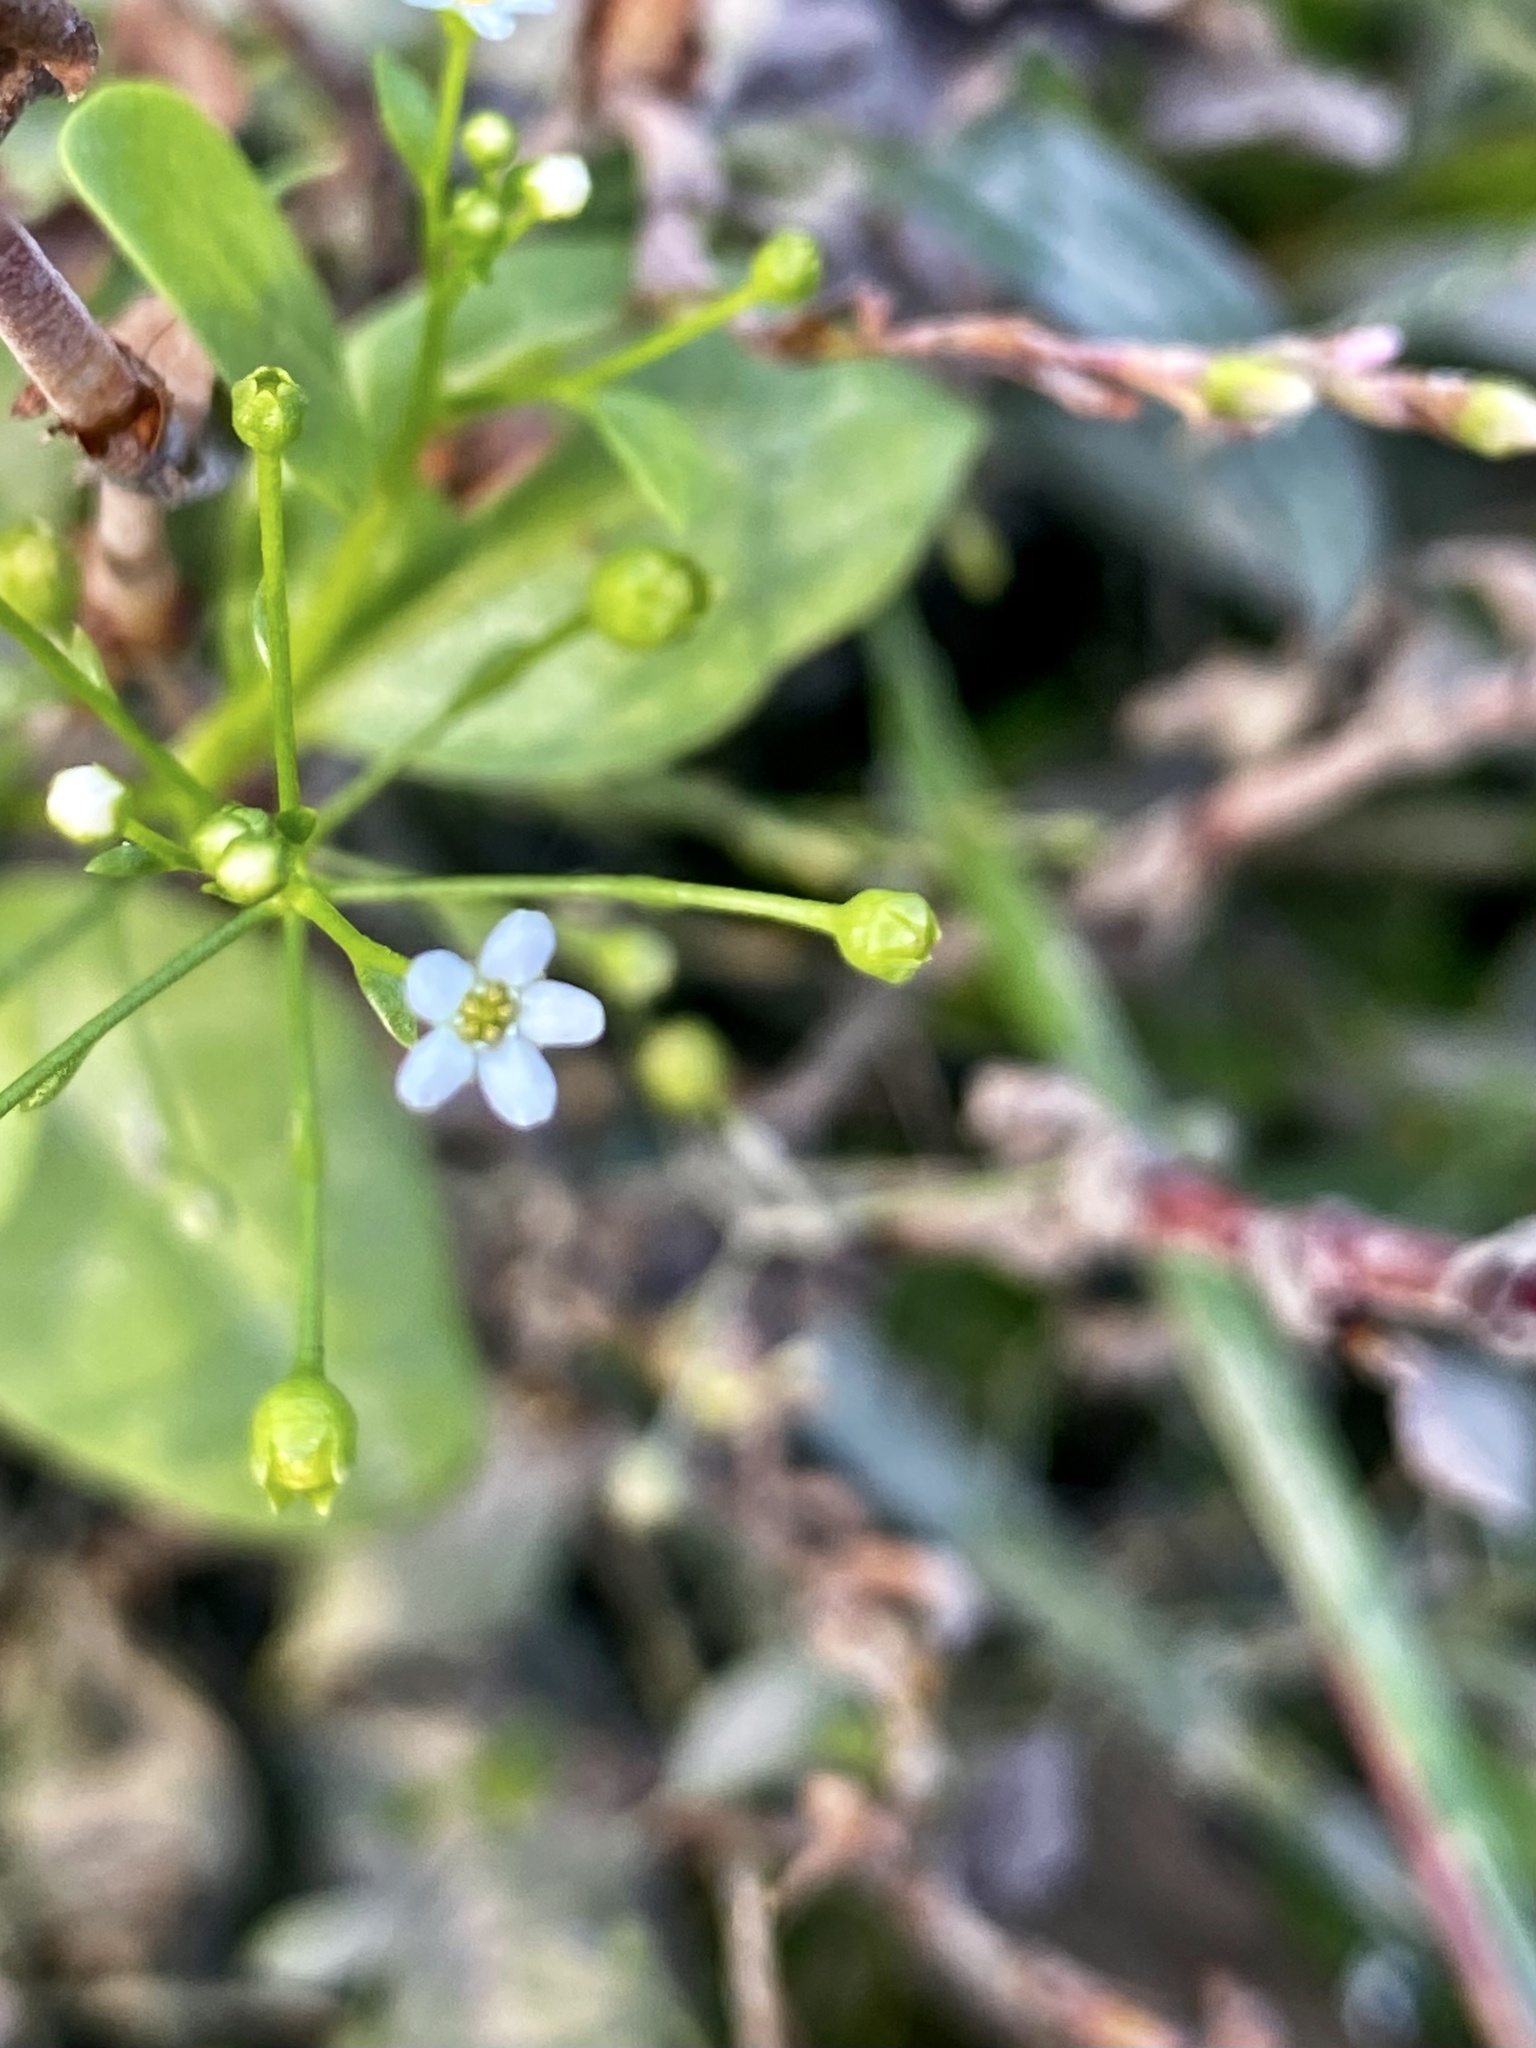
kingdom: Plantae
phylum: Tracheophyta
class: Magnoliopsida
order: Ericales
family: Primulaceae
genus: Samolus
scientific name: Samolus parviflorus
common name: False water pimpernel
